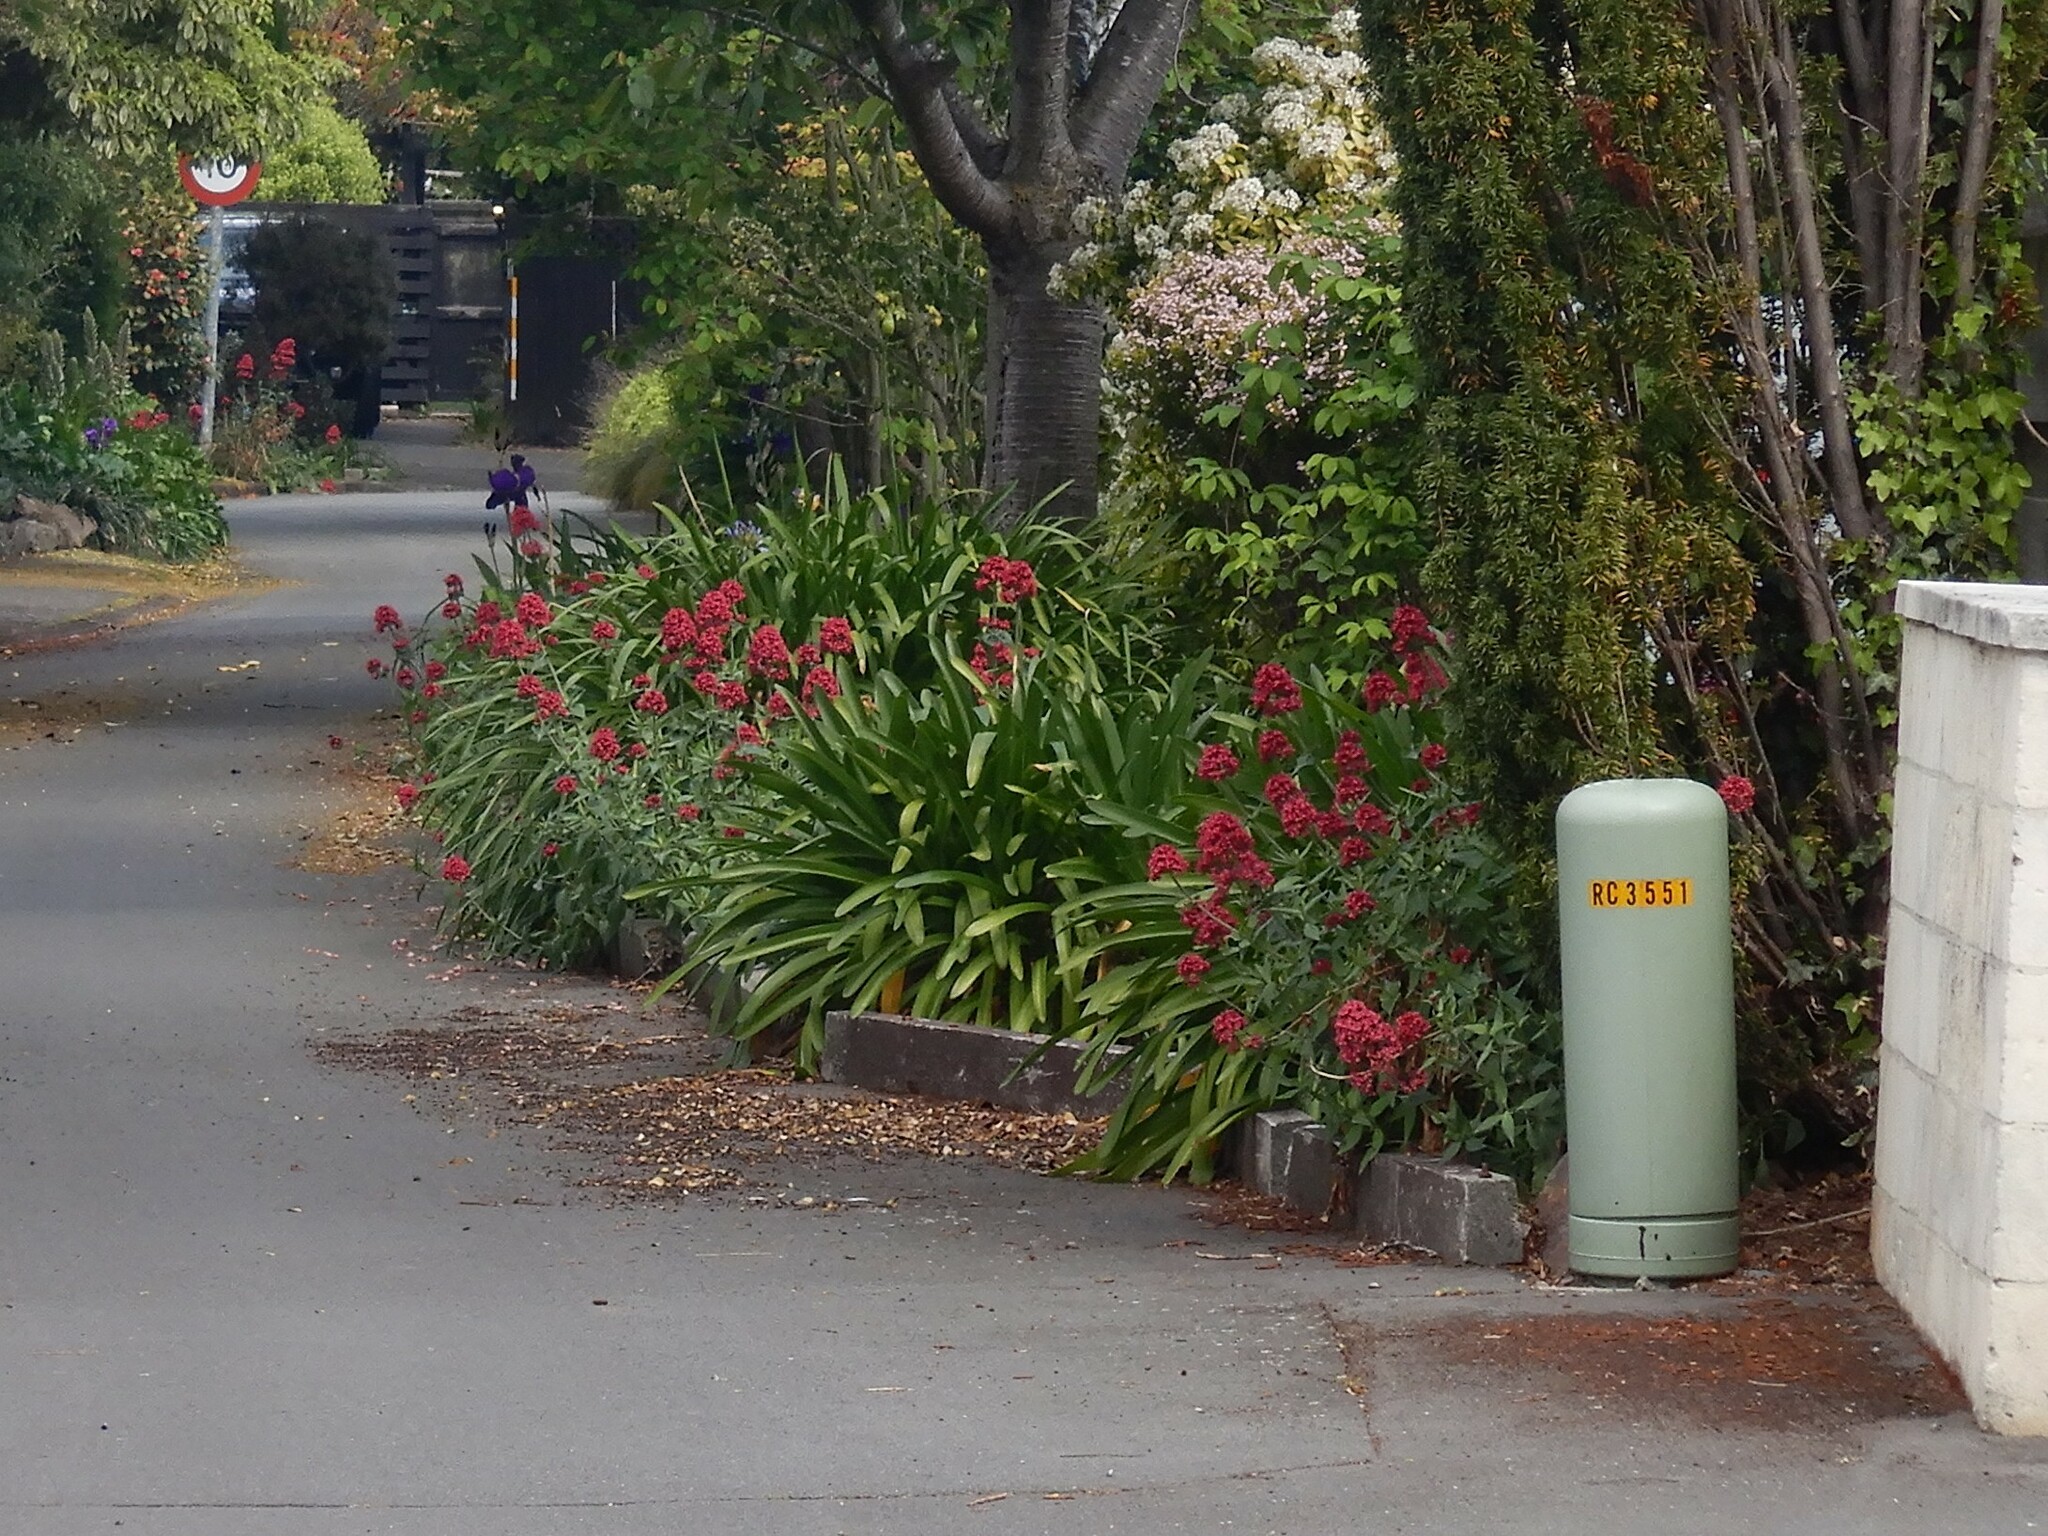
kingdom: Plantae
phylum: Tracheophyta
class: Magnoliopsida
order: Dipsacales
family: Caprifoliaceae
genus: Centranthus
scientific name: Centranthus ruber
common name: Red valerian
